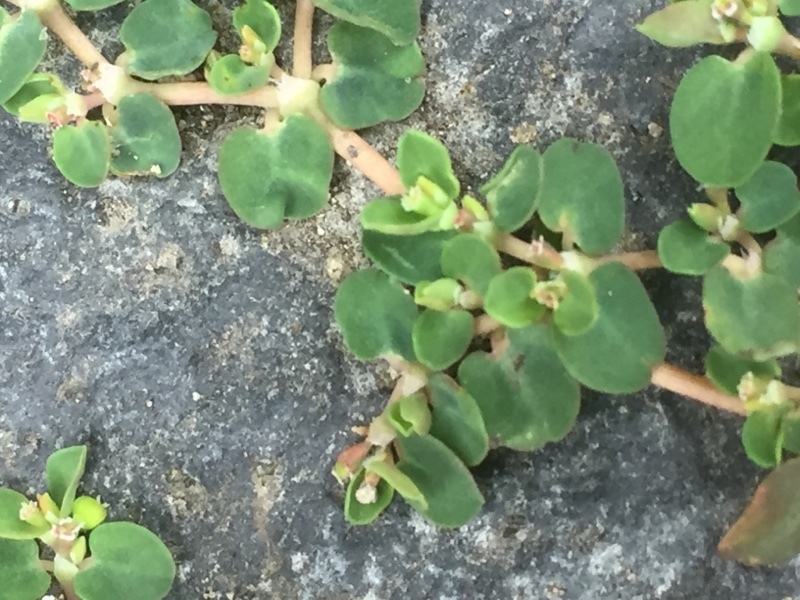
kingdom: Plantae
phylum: Tracheophyta
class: Magnoliopsida
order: Malpighiales
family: Euphorbiaceae
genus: Euphorbia
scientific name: Euphorbia serpens
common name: Matted sandmat
